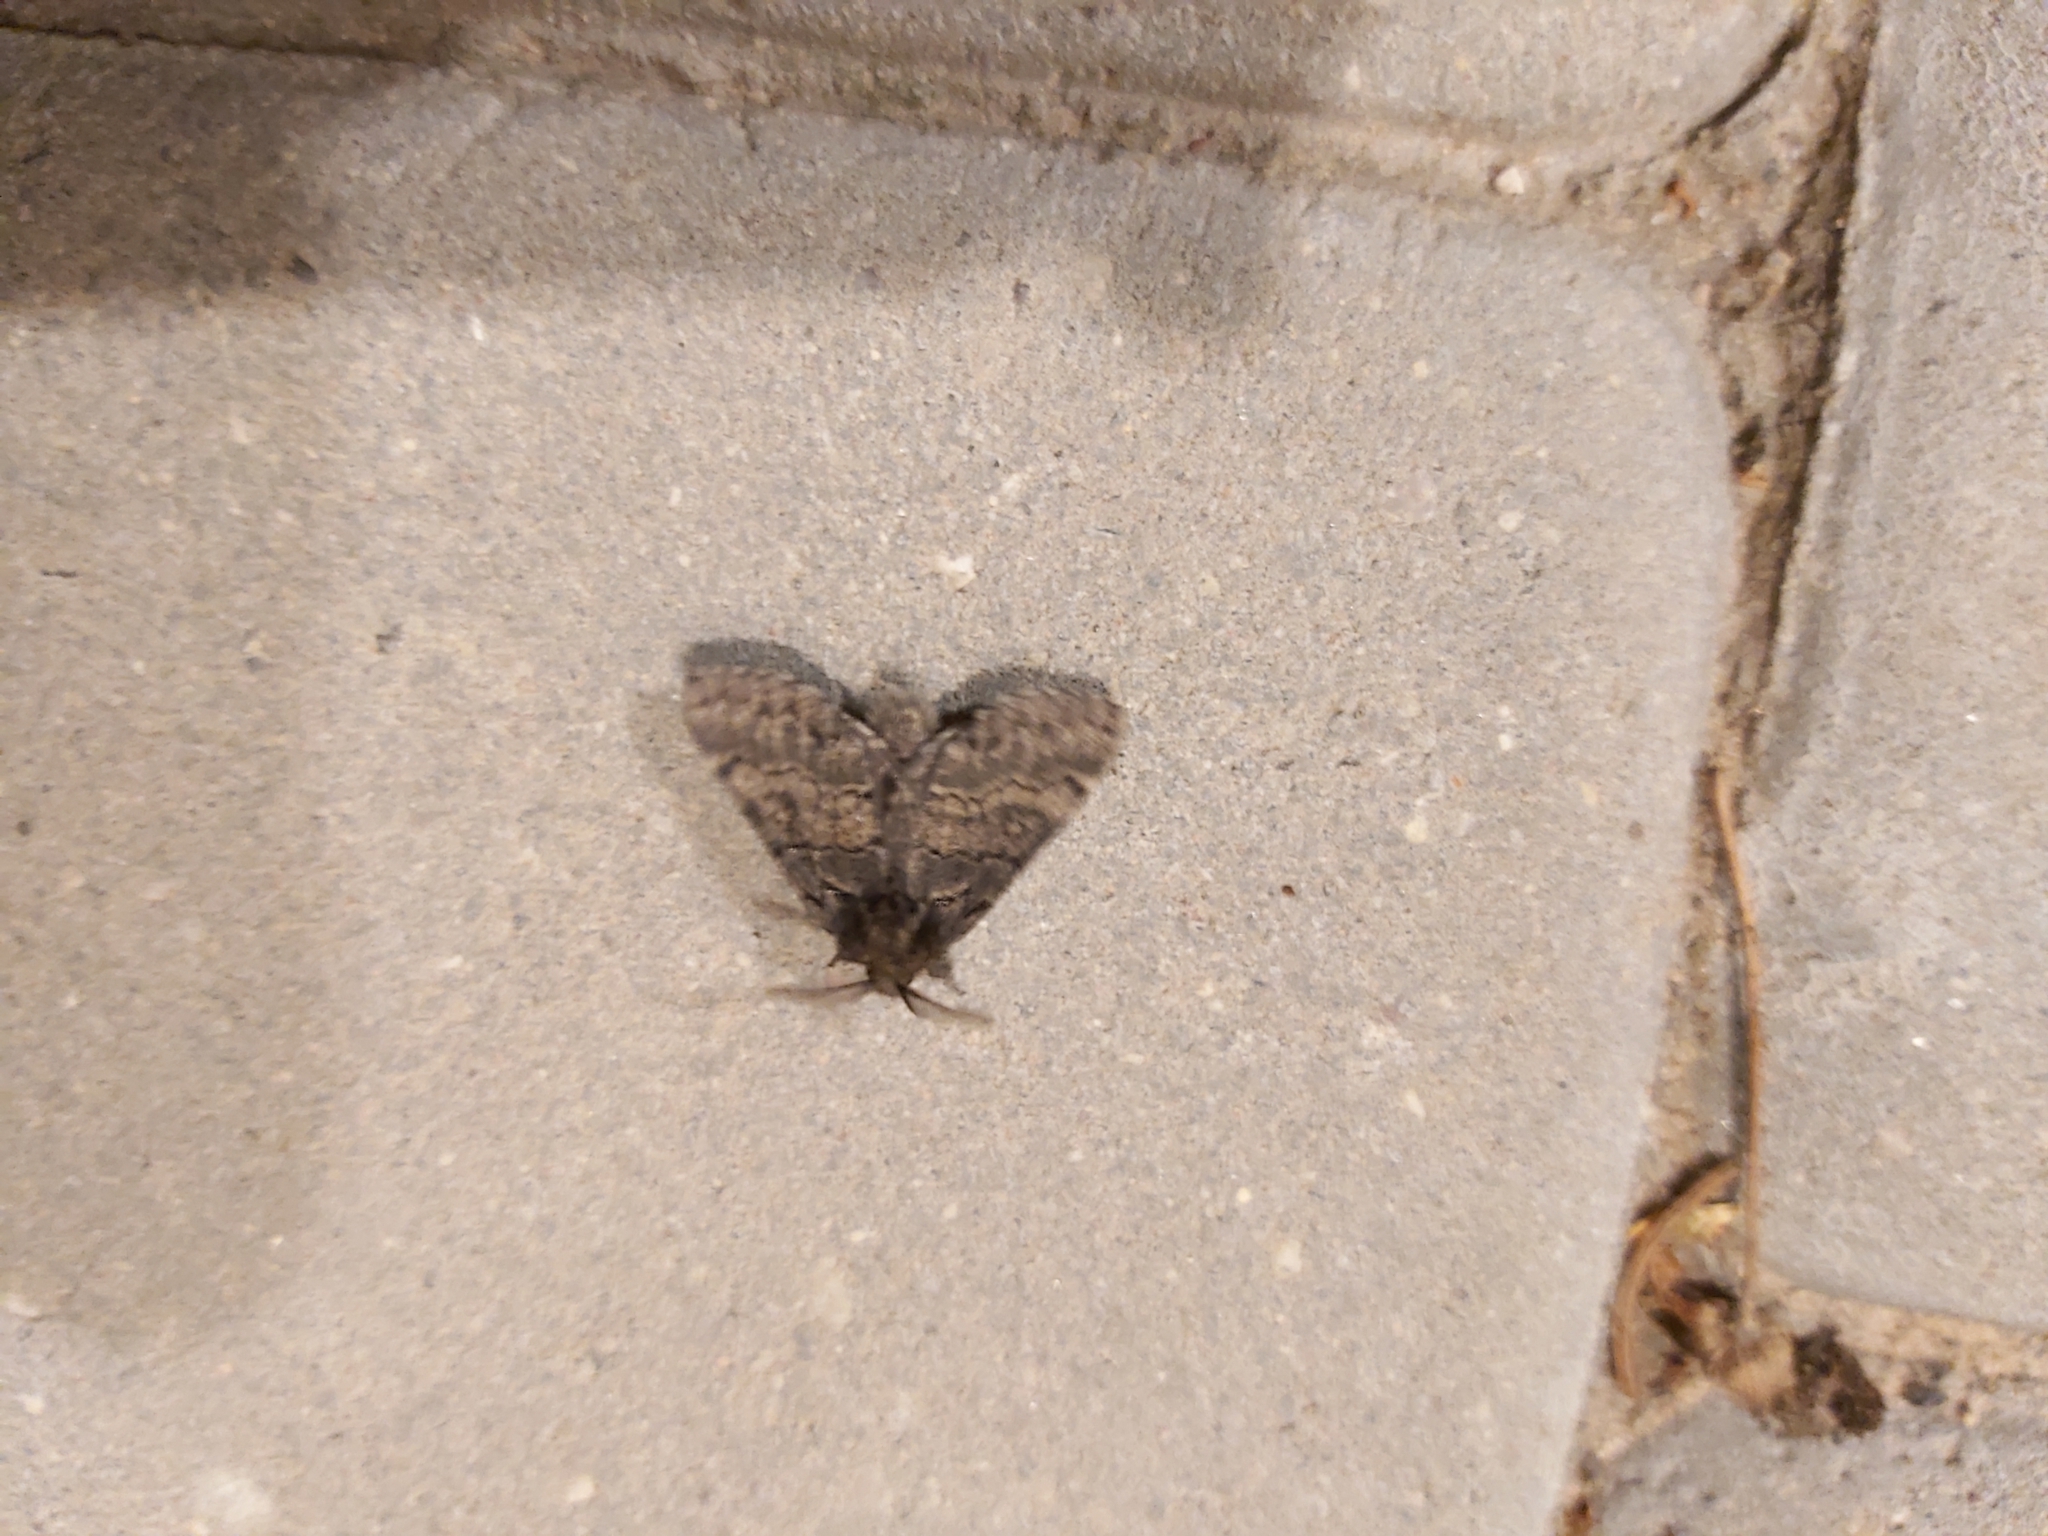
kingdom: Animalia
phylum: Arthropoda
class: Insecta
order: Lepidoptera
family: Notodontidae
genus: Gluphisia
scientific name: Gluphisia crenata
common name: Dusky marbled brown
